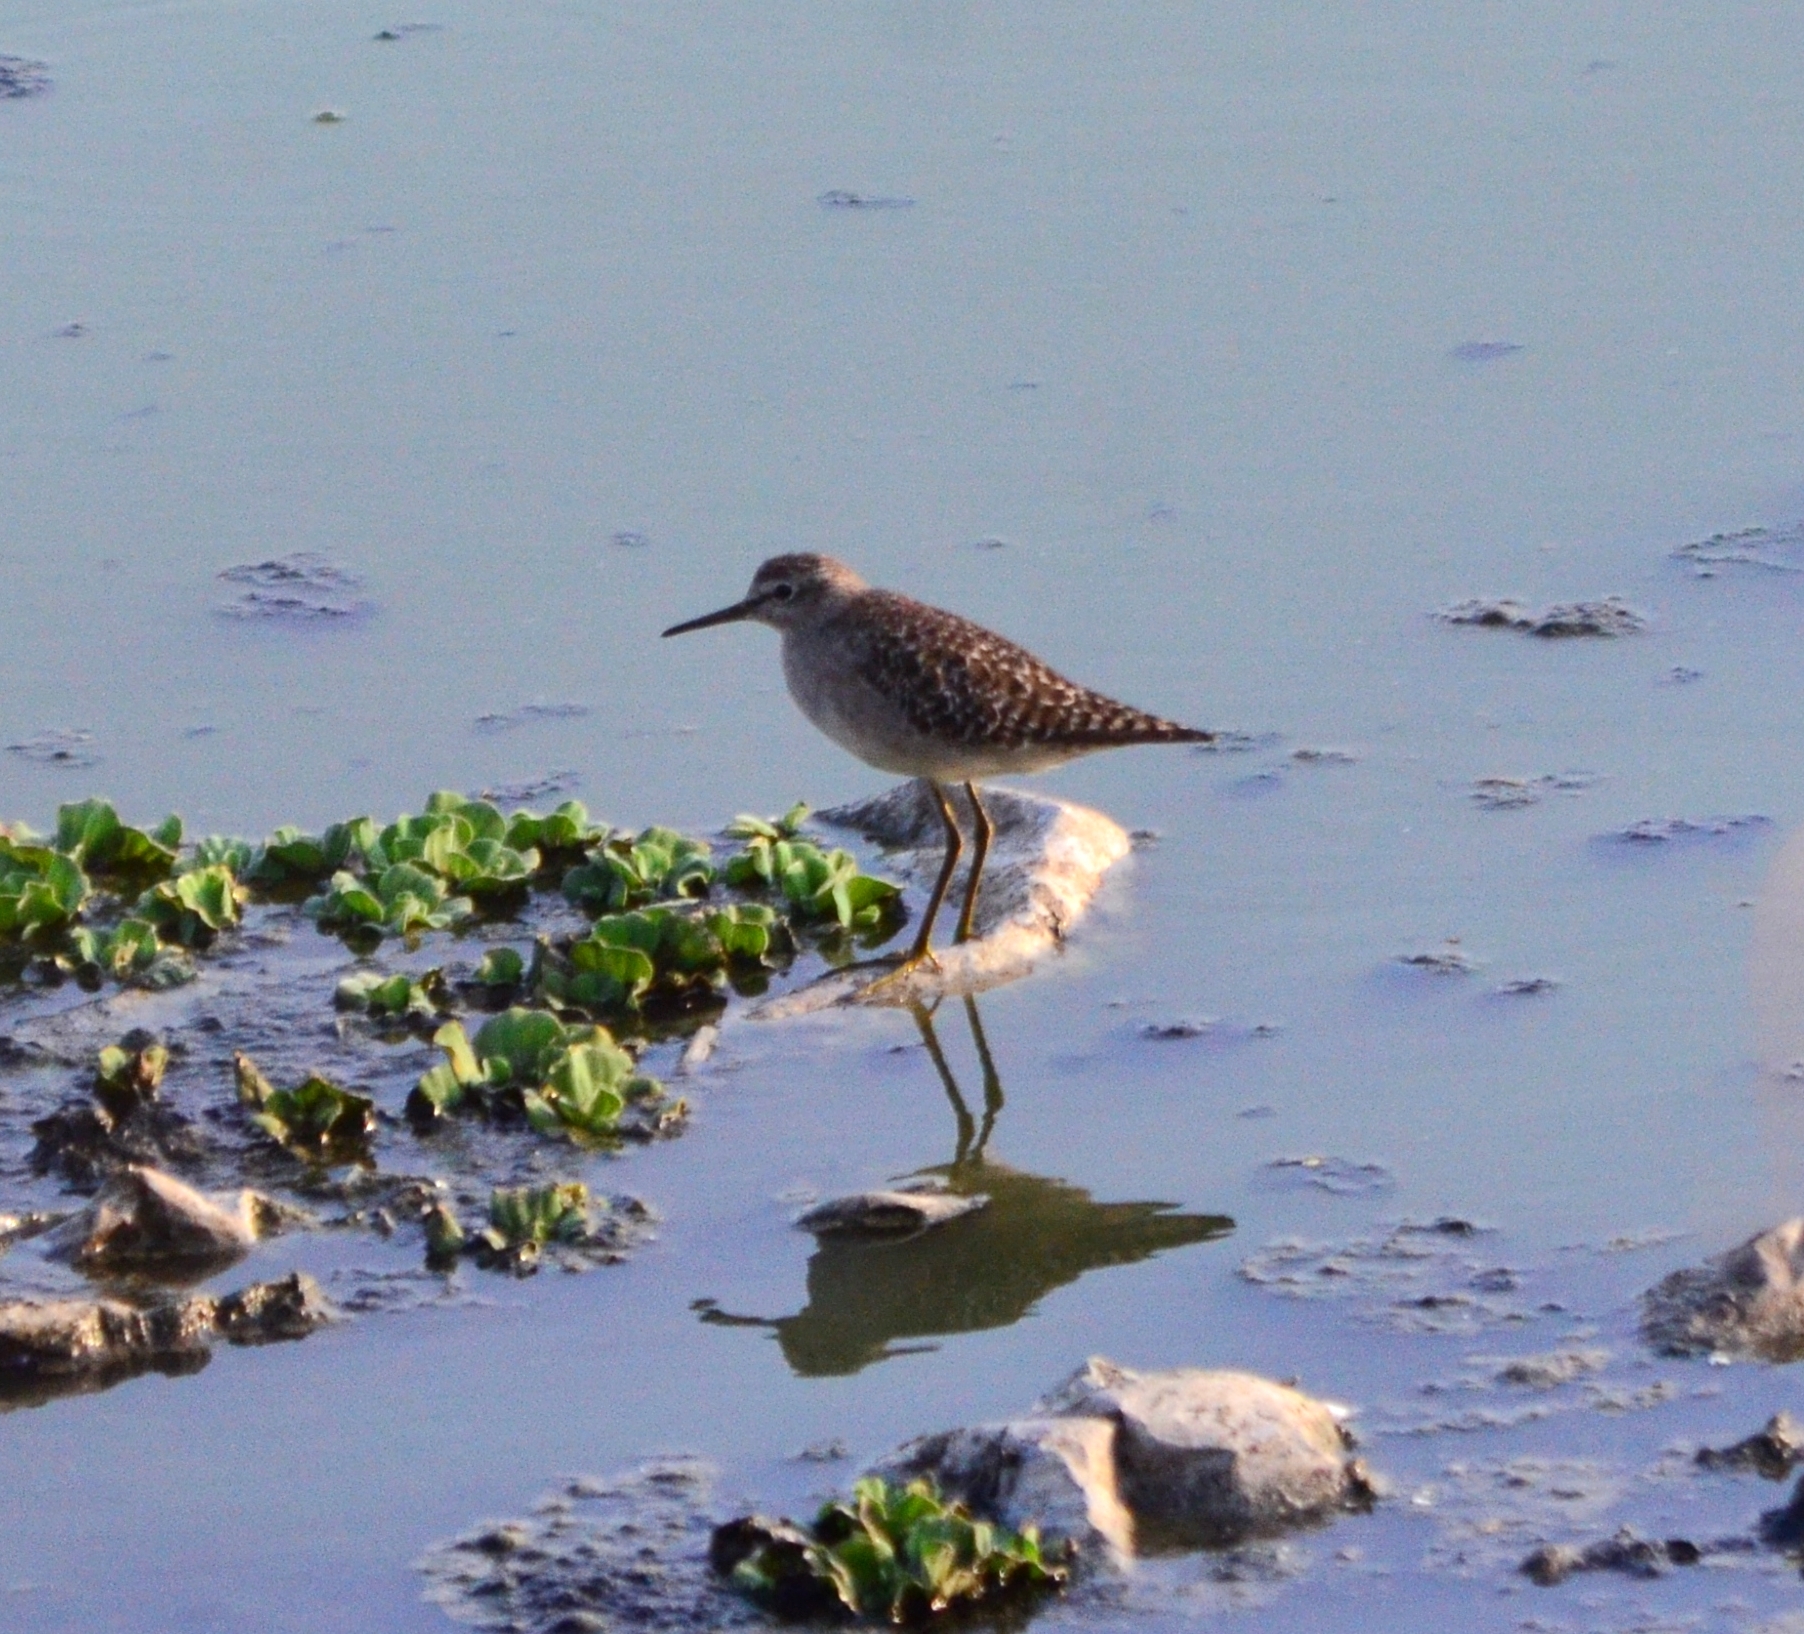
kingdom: Animalia
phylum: Chordata
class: Aves
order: Charadriiformes
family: Scolopacidae
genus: Tringa
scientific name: Tringa glareola
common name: Wood sandpiper
